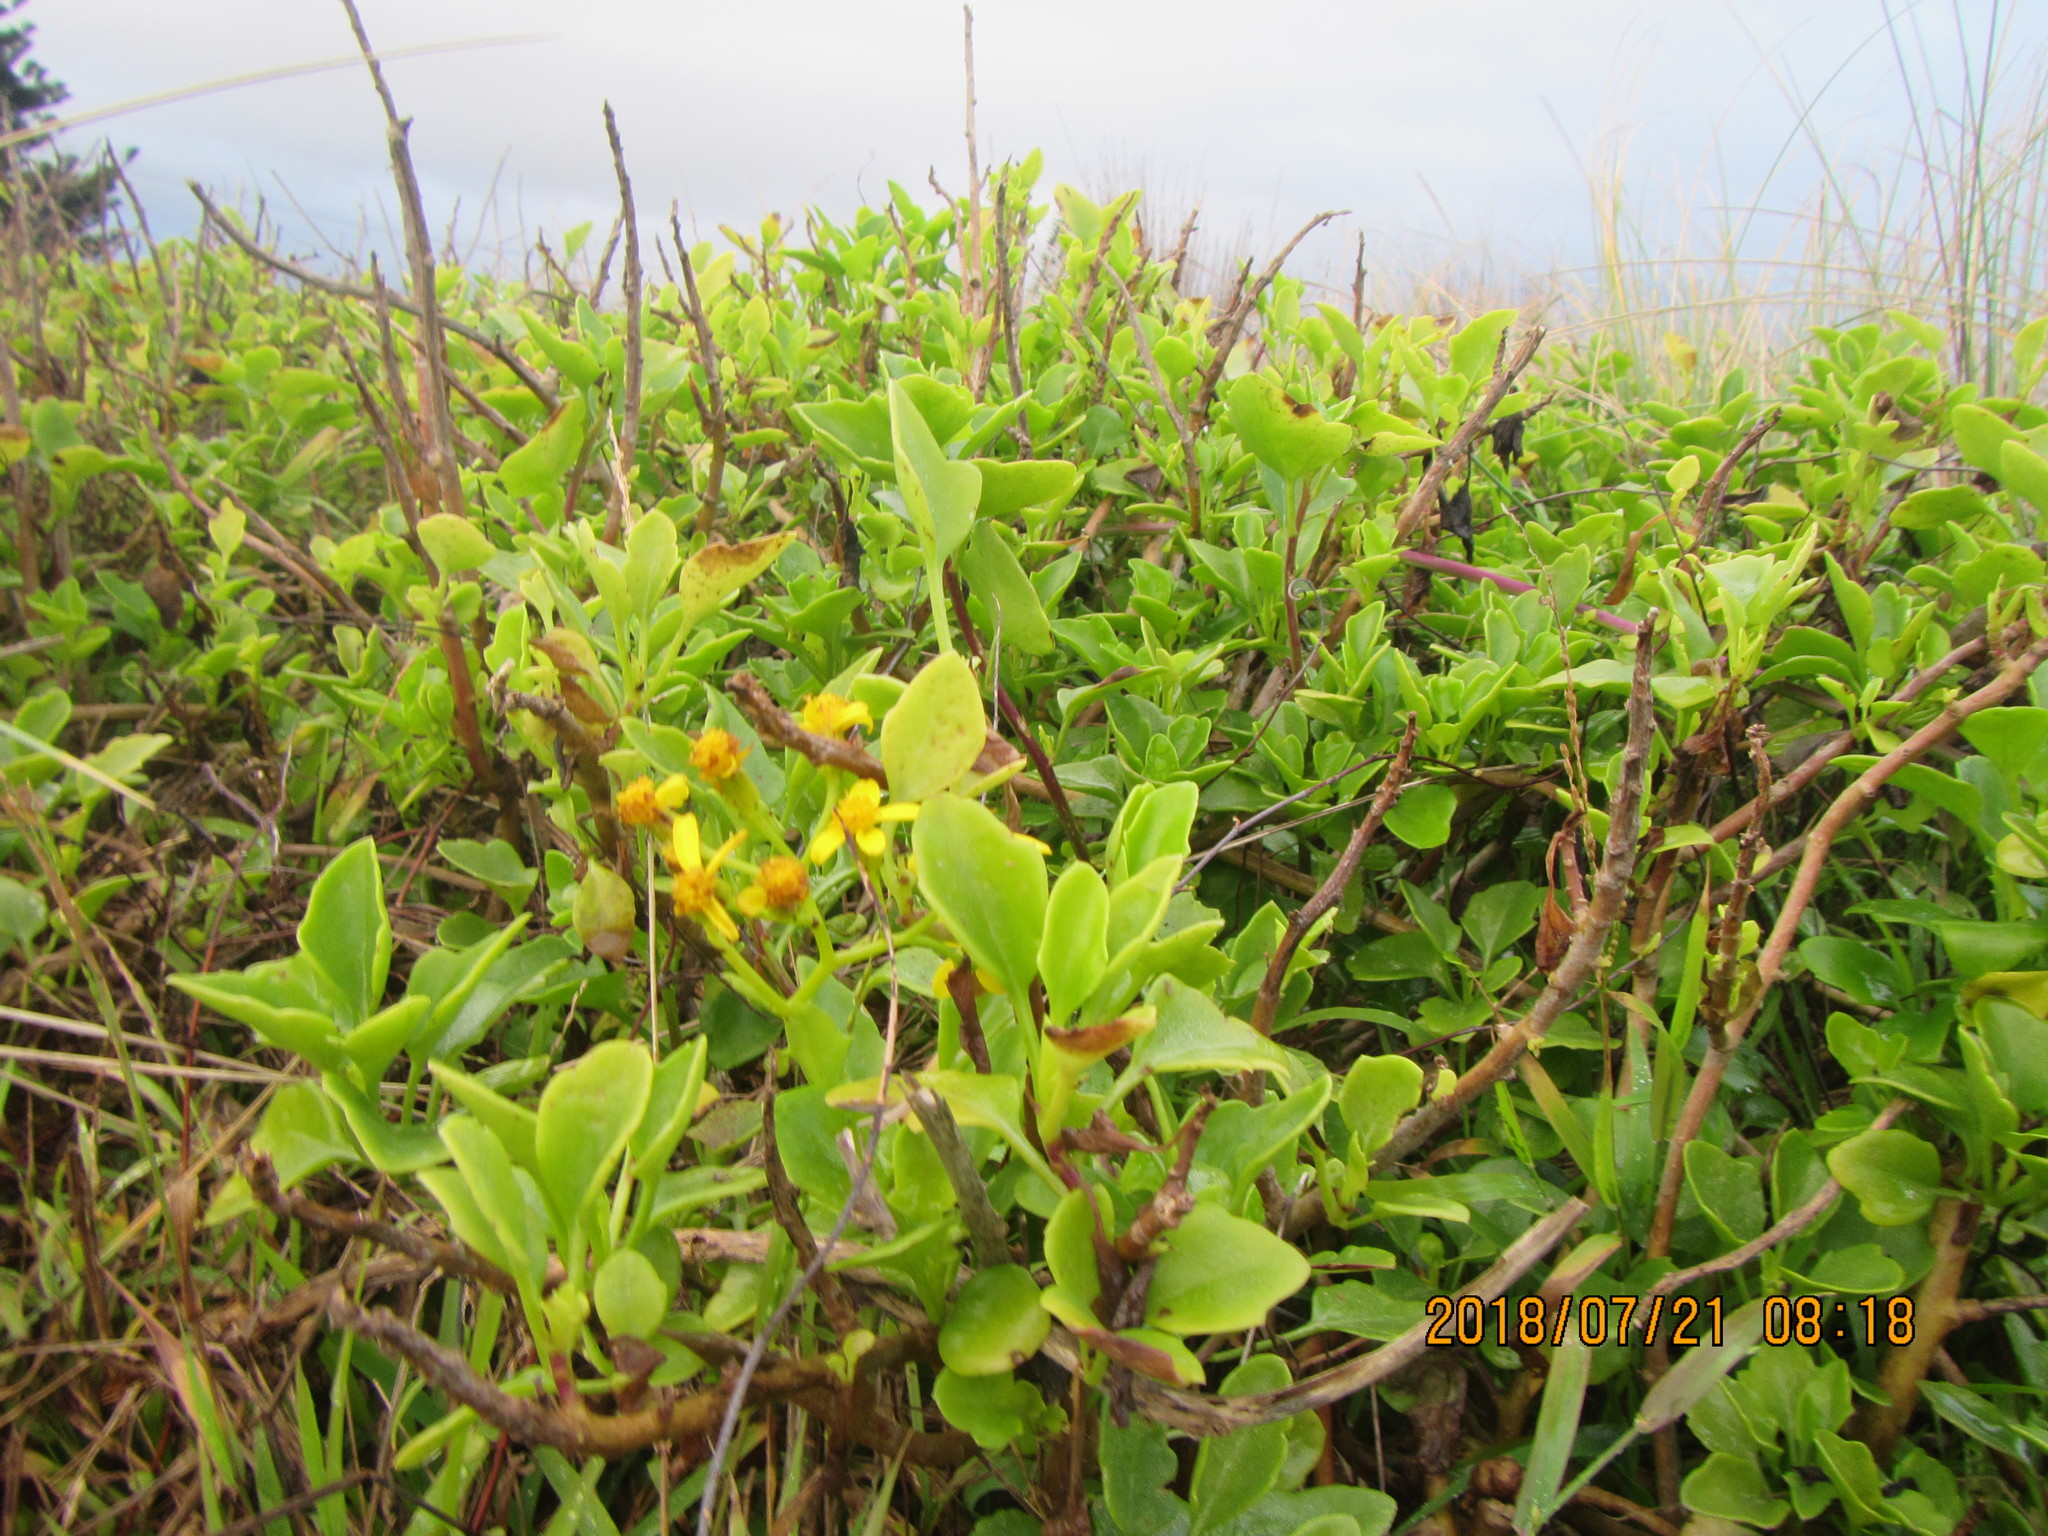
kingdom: Plantae
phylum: Tracheophyta
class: Magnoliopsida
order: Asterales
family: Asteraceae
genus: Senecio
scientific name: Senecio angulatus
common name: Climbing groundsel
